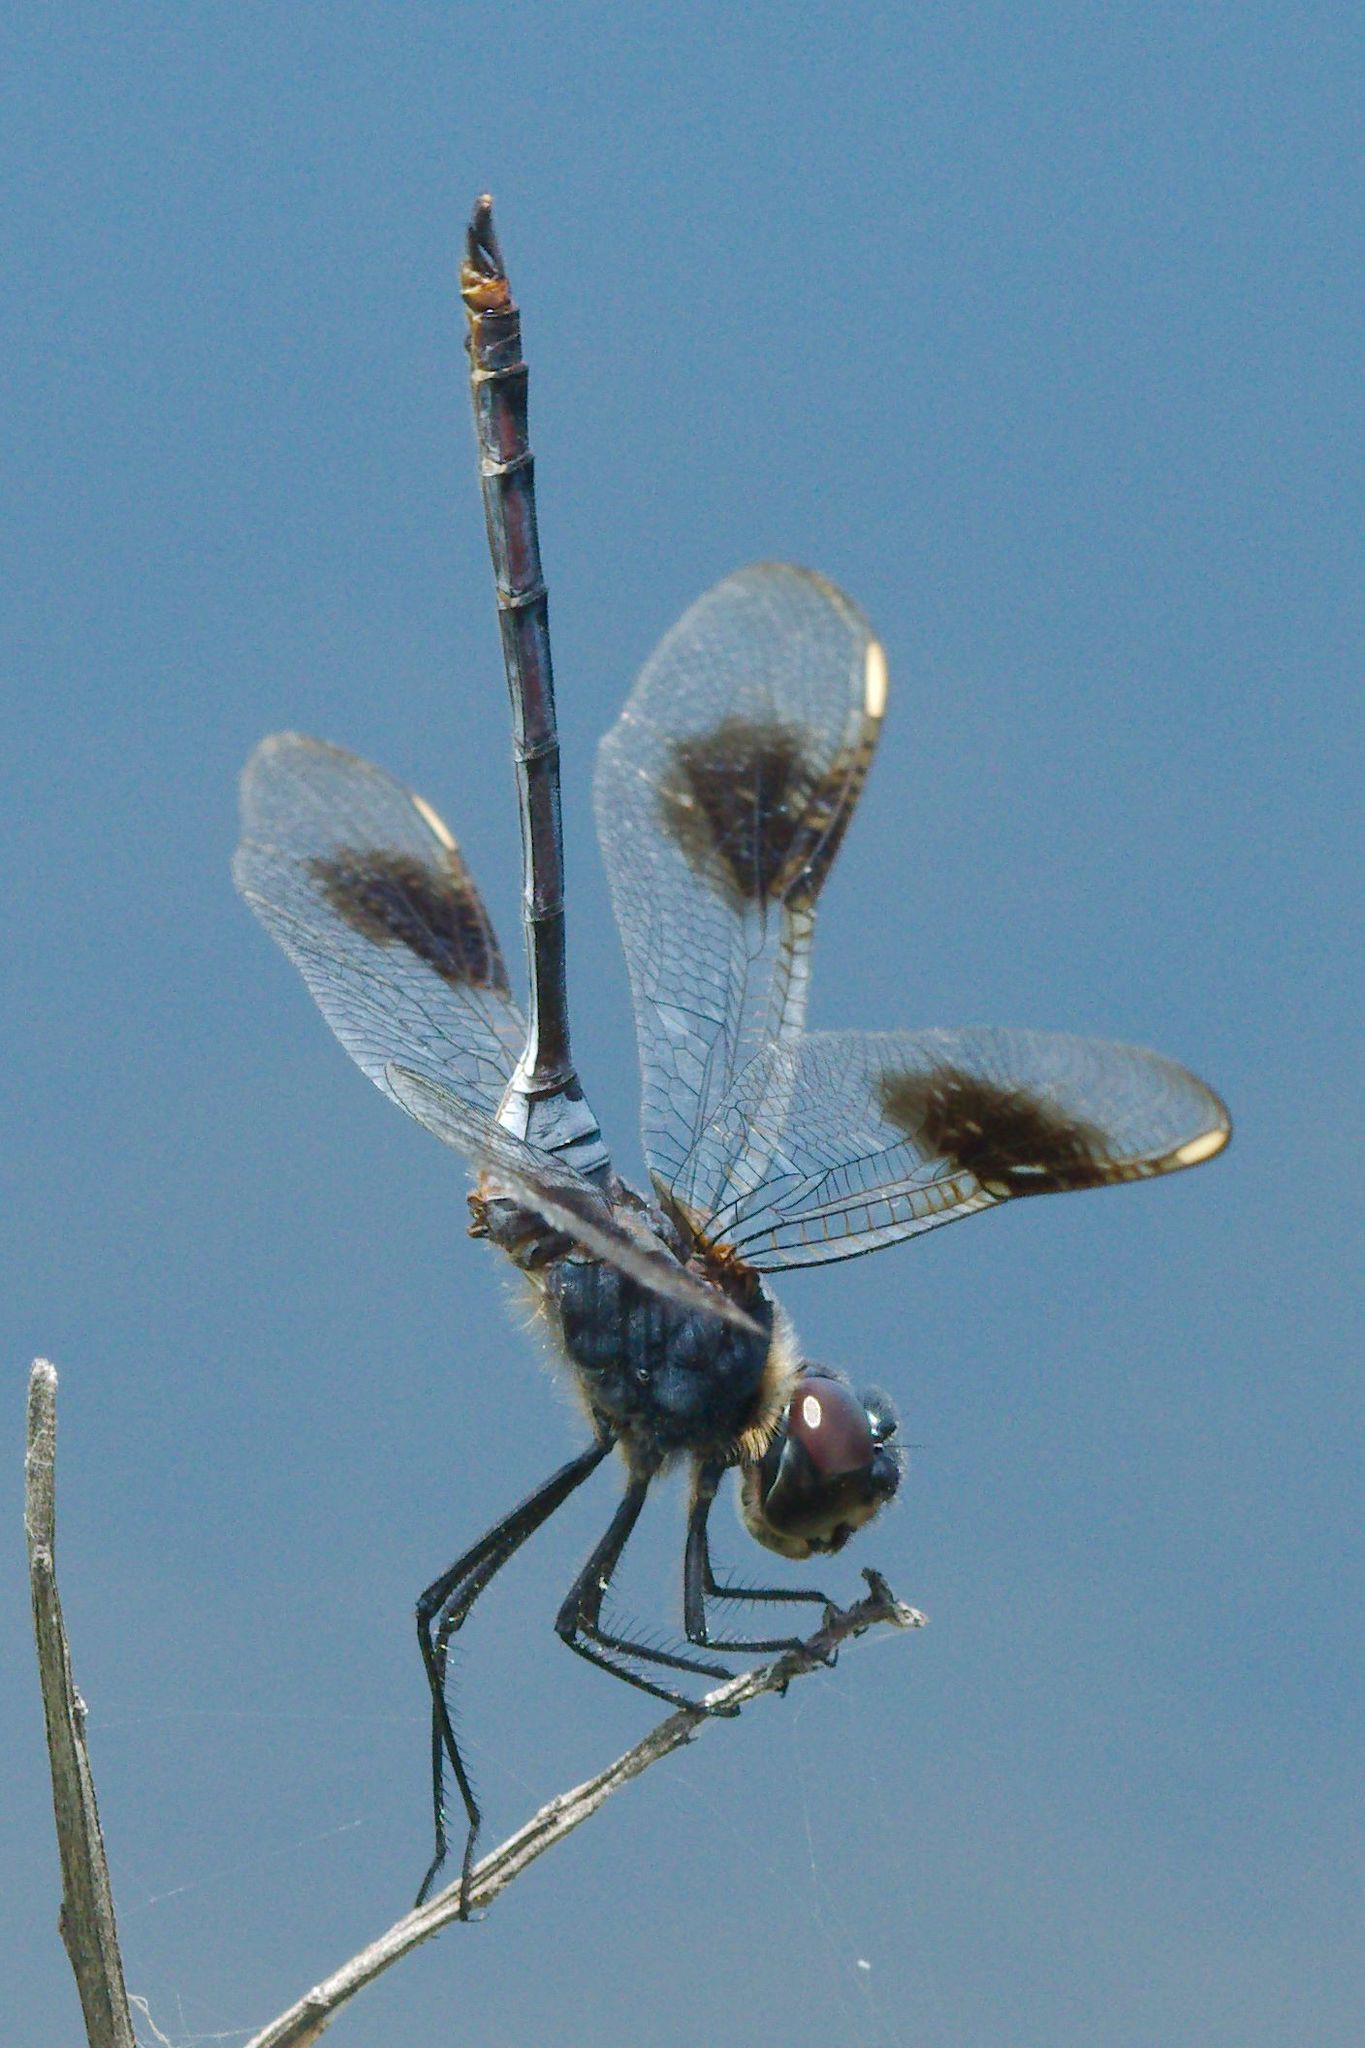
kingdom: Animalia
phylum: Arthropoda
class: Insecta
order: Odonata
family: Libellulidae
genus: Brachymesia
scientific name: Brachymesia gravida
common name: Four-spotted pennant
